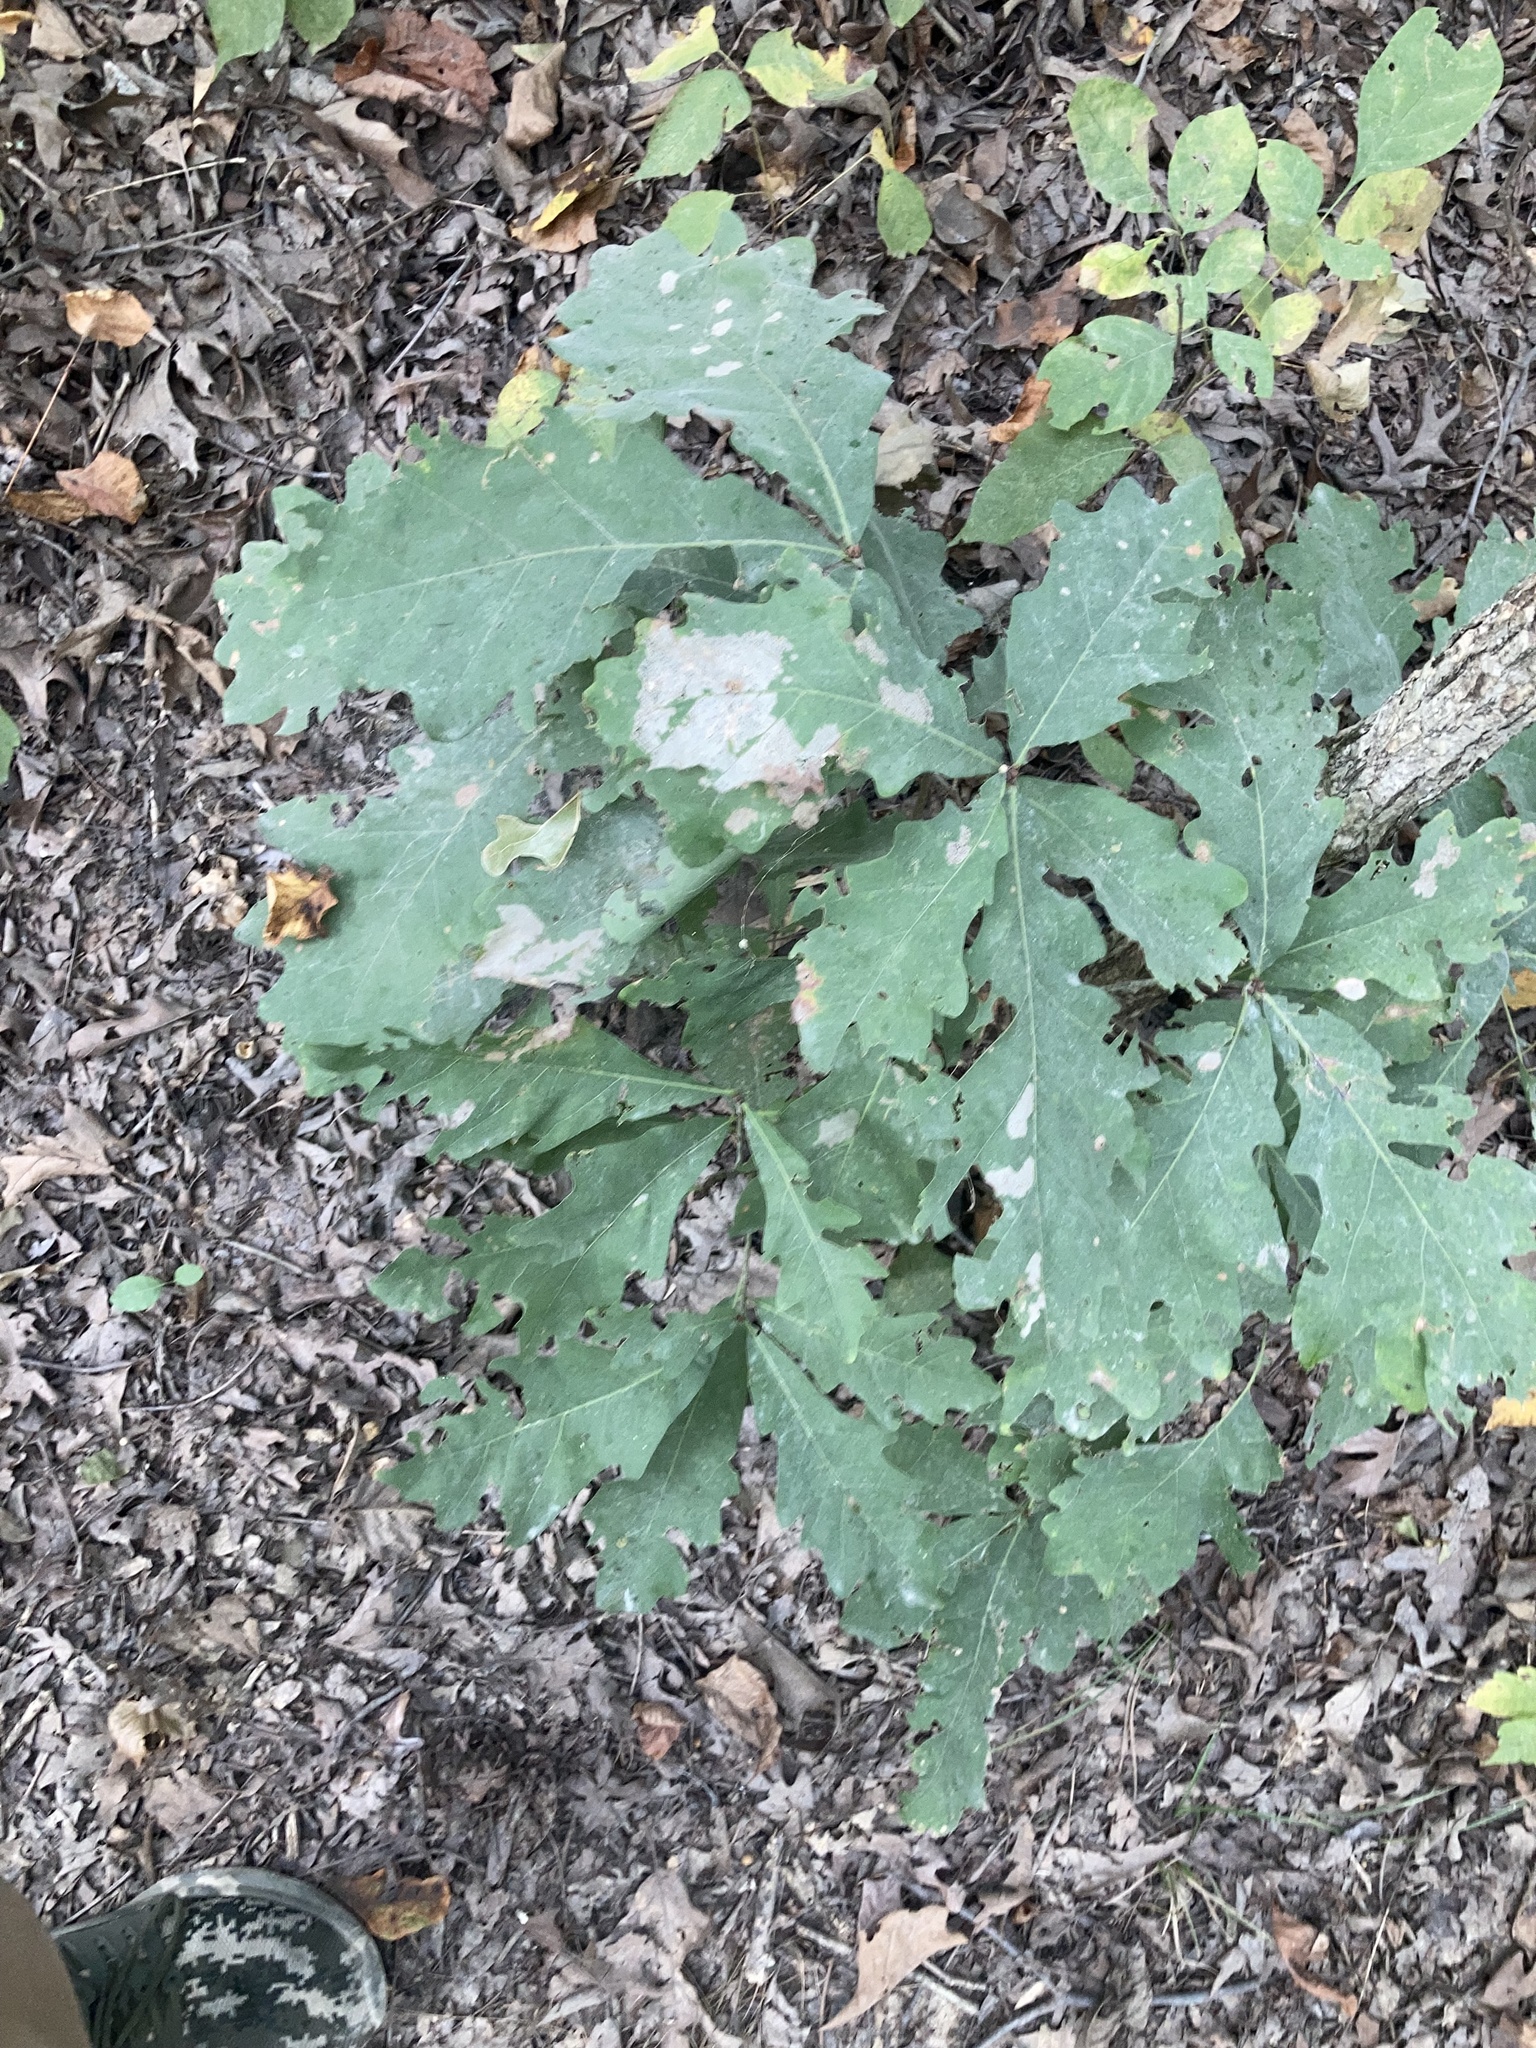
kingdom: Plantae
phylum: Tracheophyta
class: Magnoliopsida
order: Fagales
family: Fagaceae
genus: Quercus
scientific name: Quercus alba
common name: White oak
